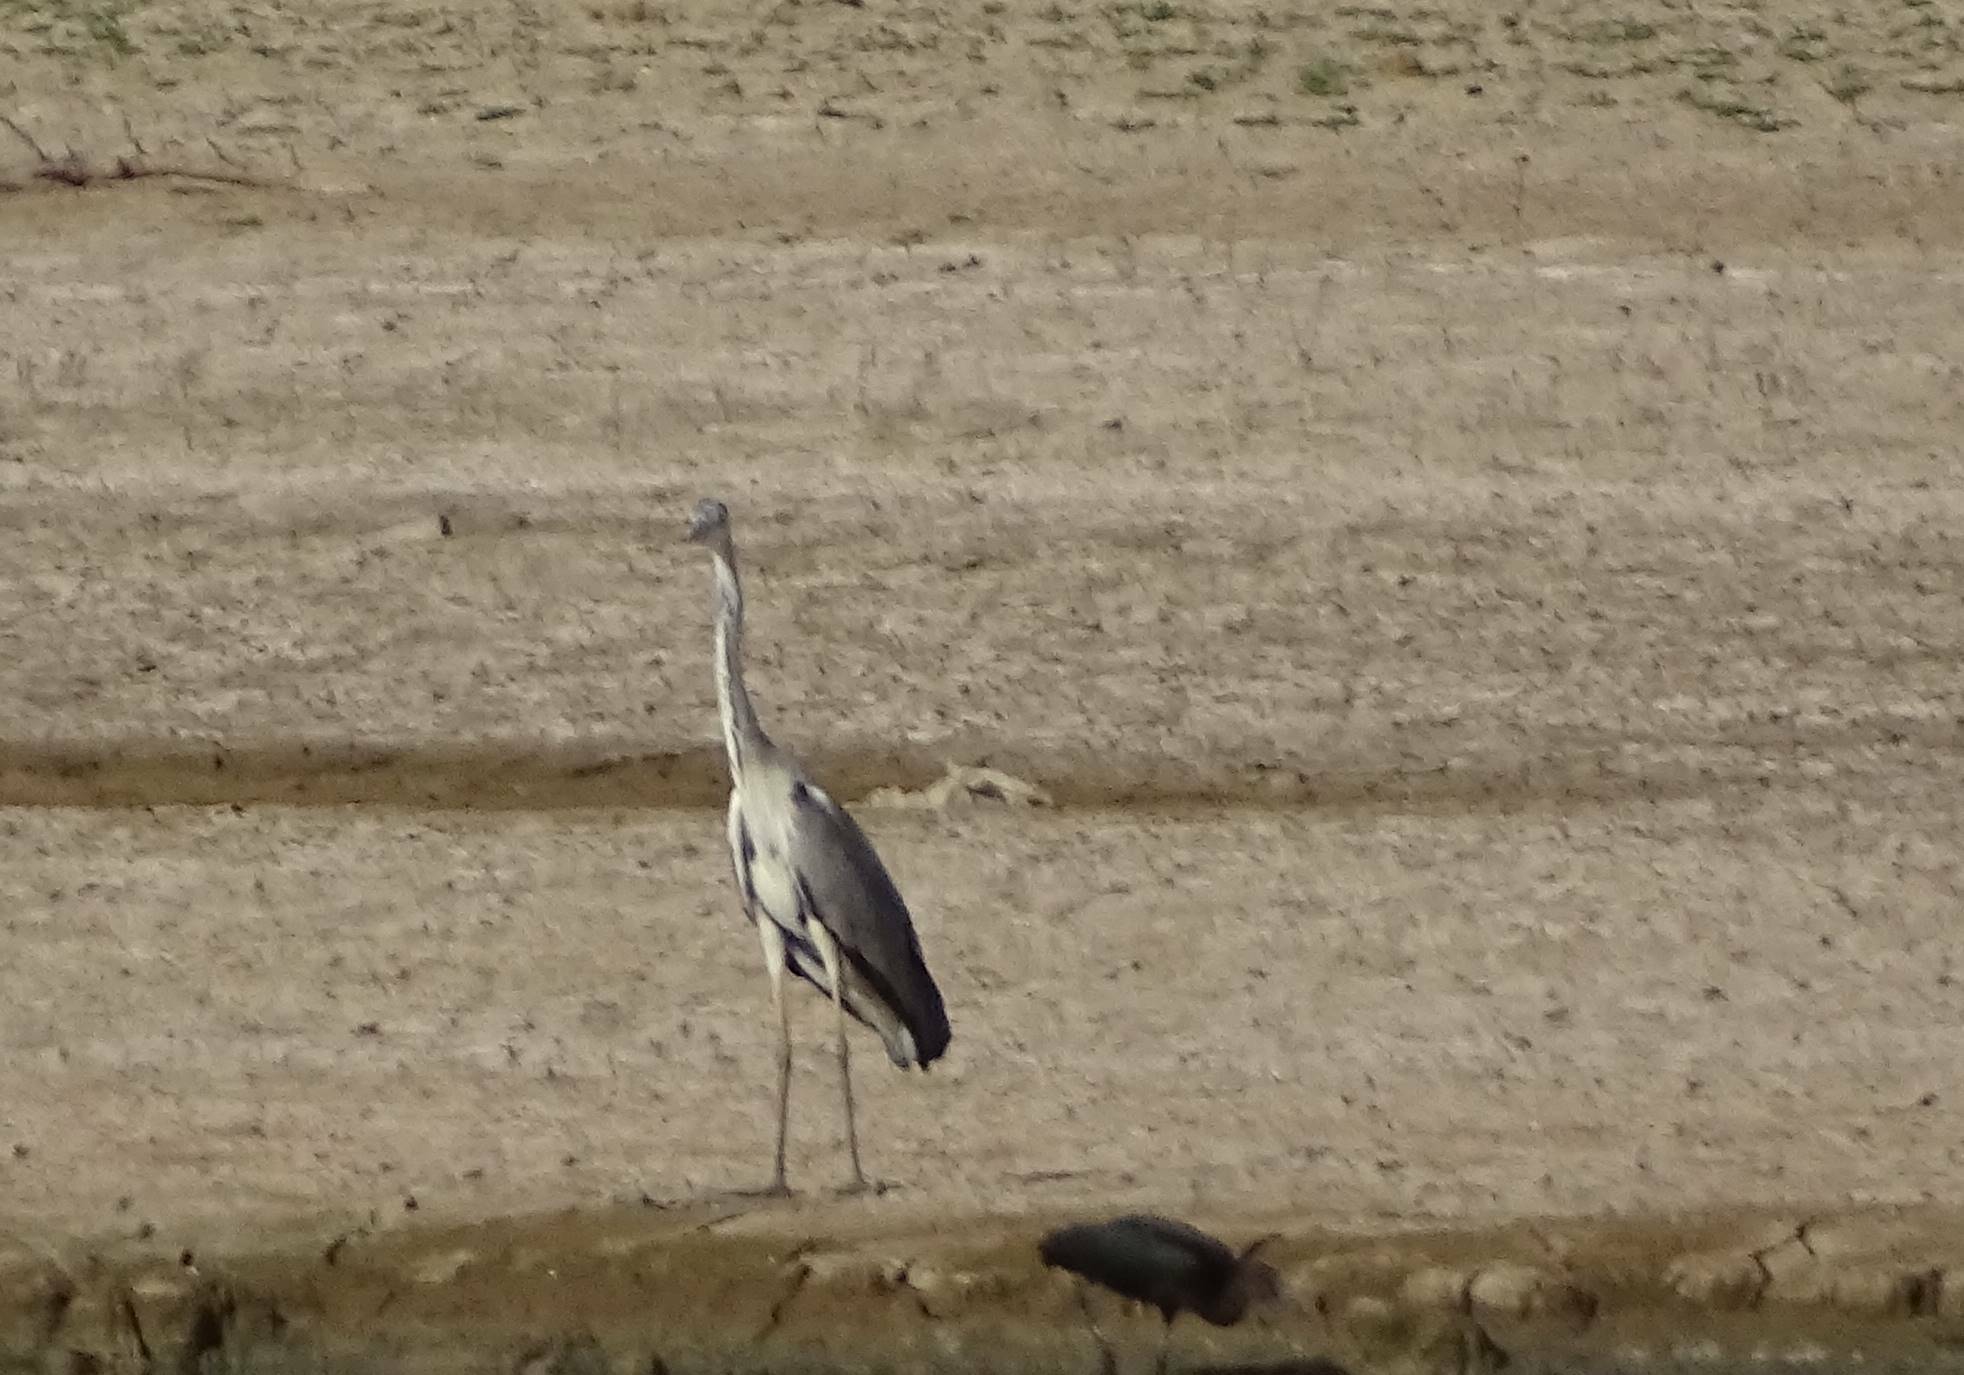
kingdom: Animalia
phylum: Chordata
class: Aves
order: Pelecaniformes
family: Ardeidae
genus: Ardea
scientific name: Ardea cinerea
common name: Grey heron
